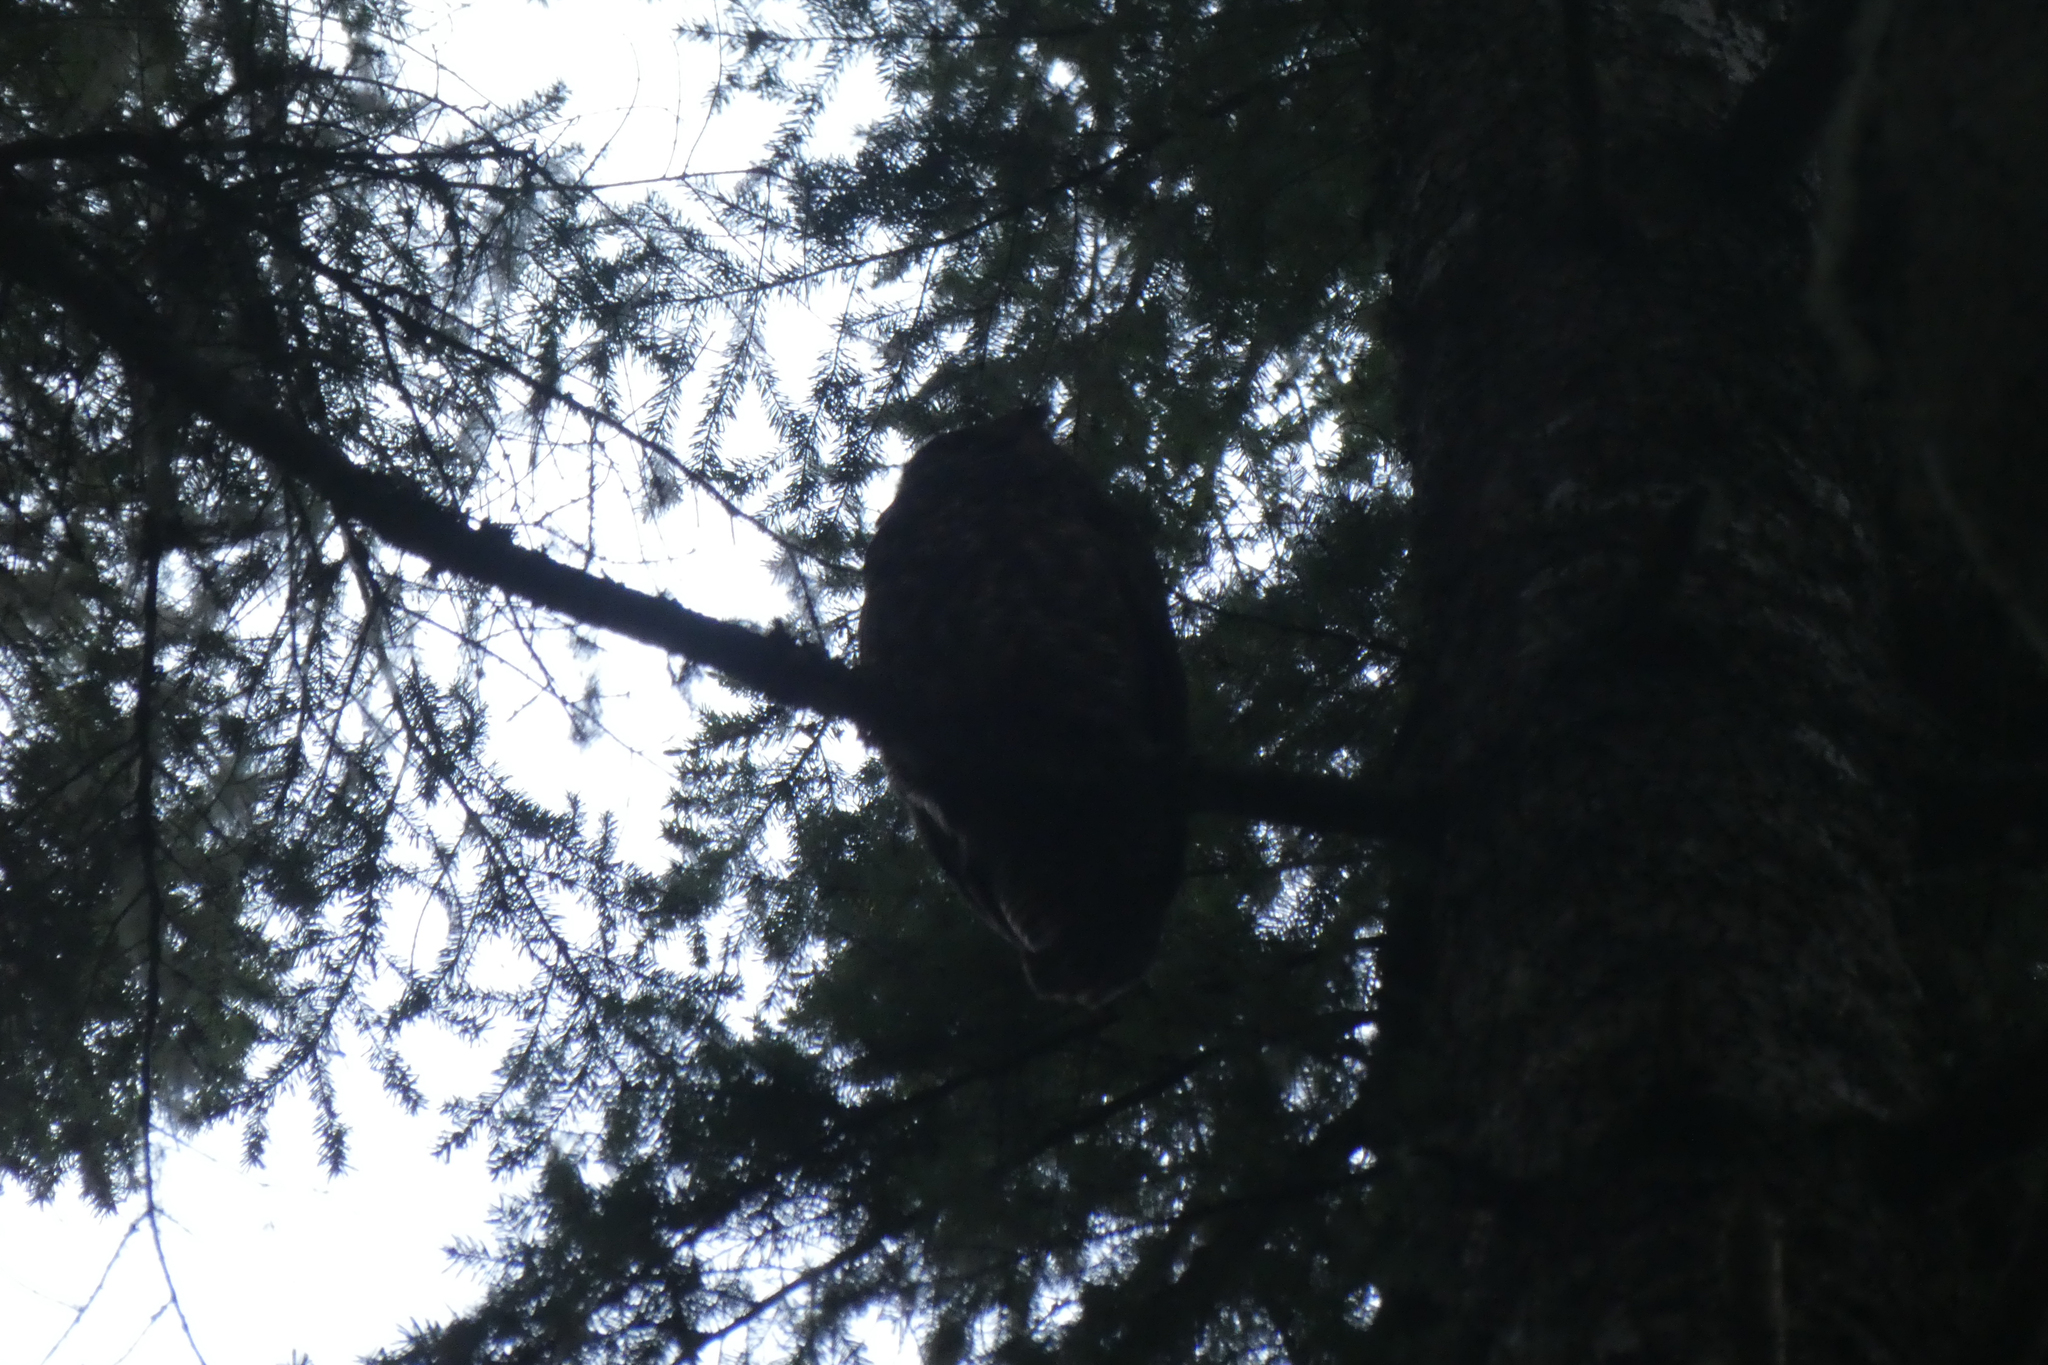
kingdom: Animalia
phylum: Chordata
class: Aves
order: Strigiformes
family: Strigidae
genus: Bubo
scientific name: Bubo virginianus
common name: Great horned owl
